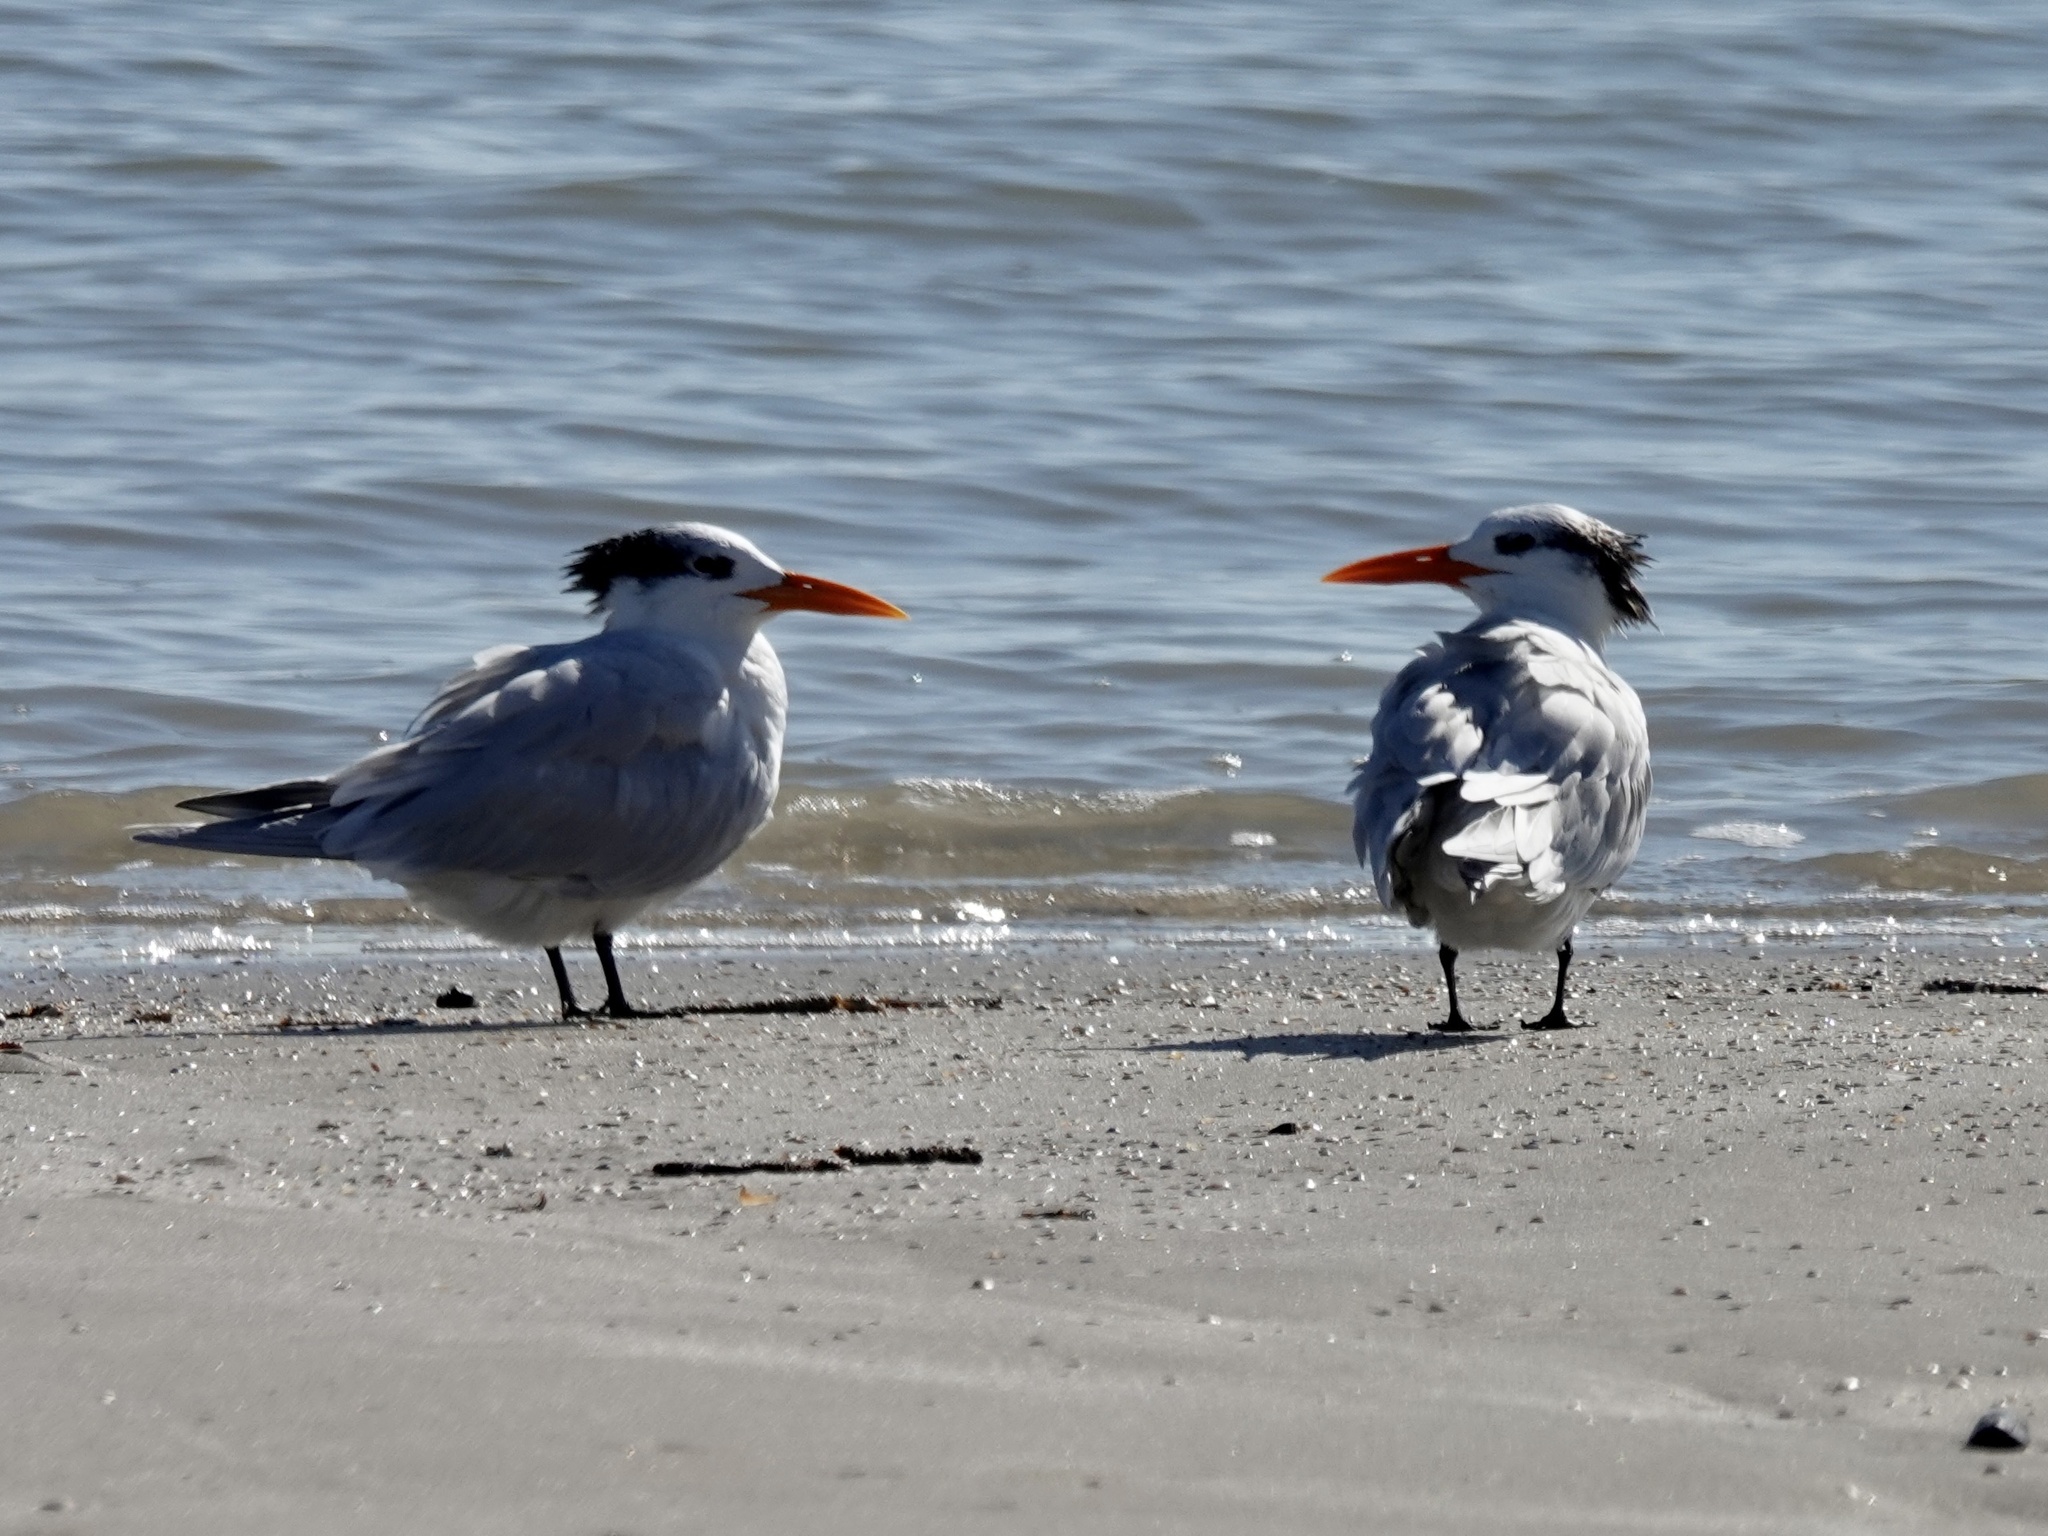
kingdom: Animalia
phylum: Chordata
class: Aves
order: Charadriiformes
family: Laridae
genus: Thalasseus
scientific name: Thalasseus maximus
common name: Royal tern
